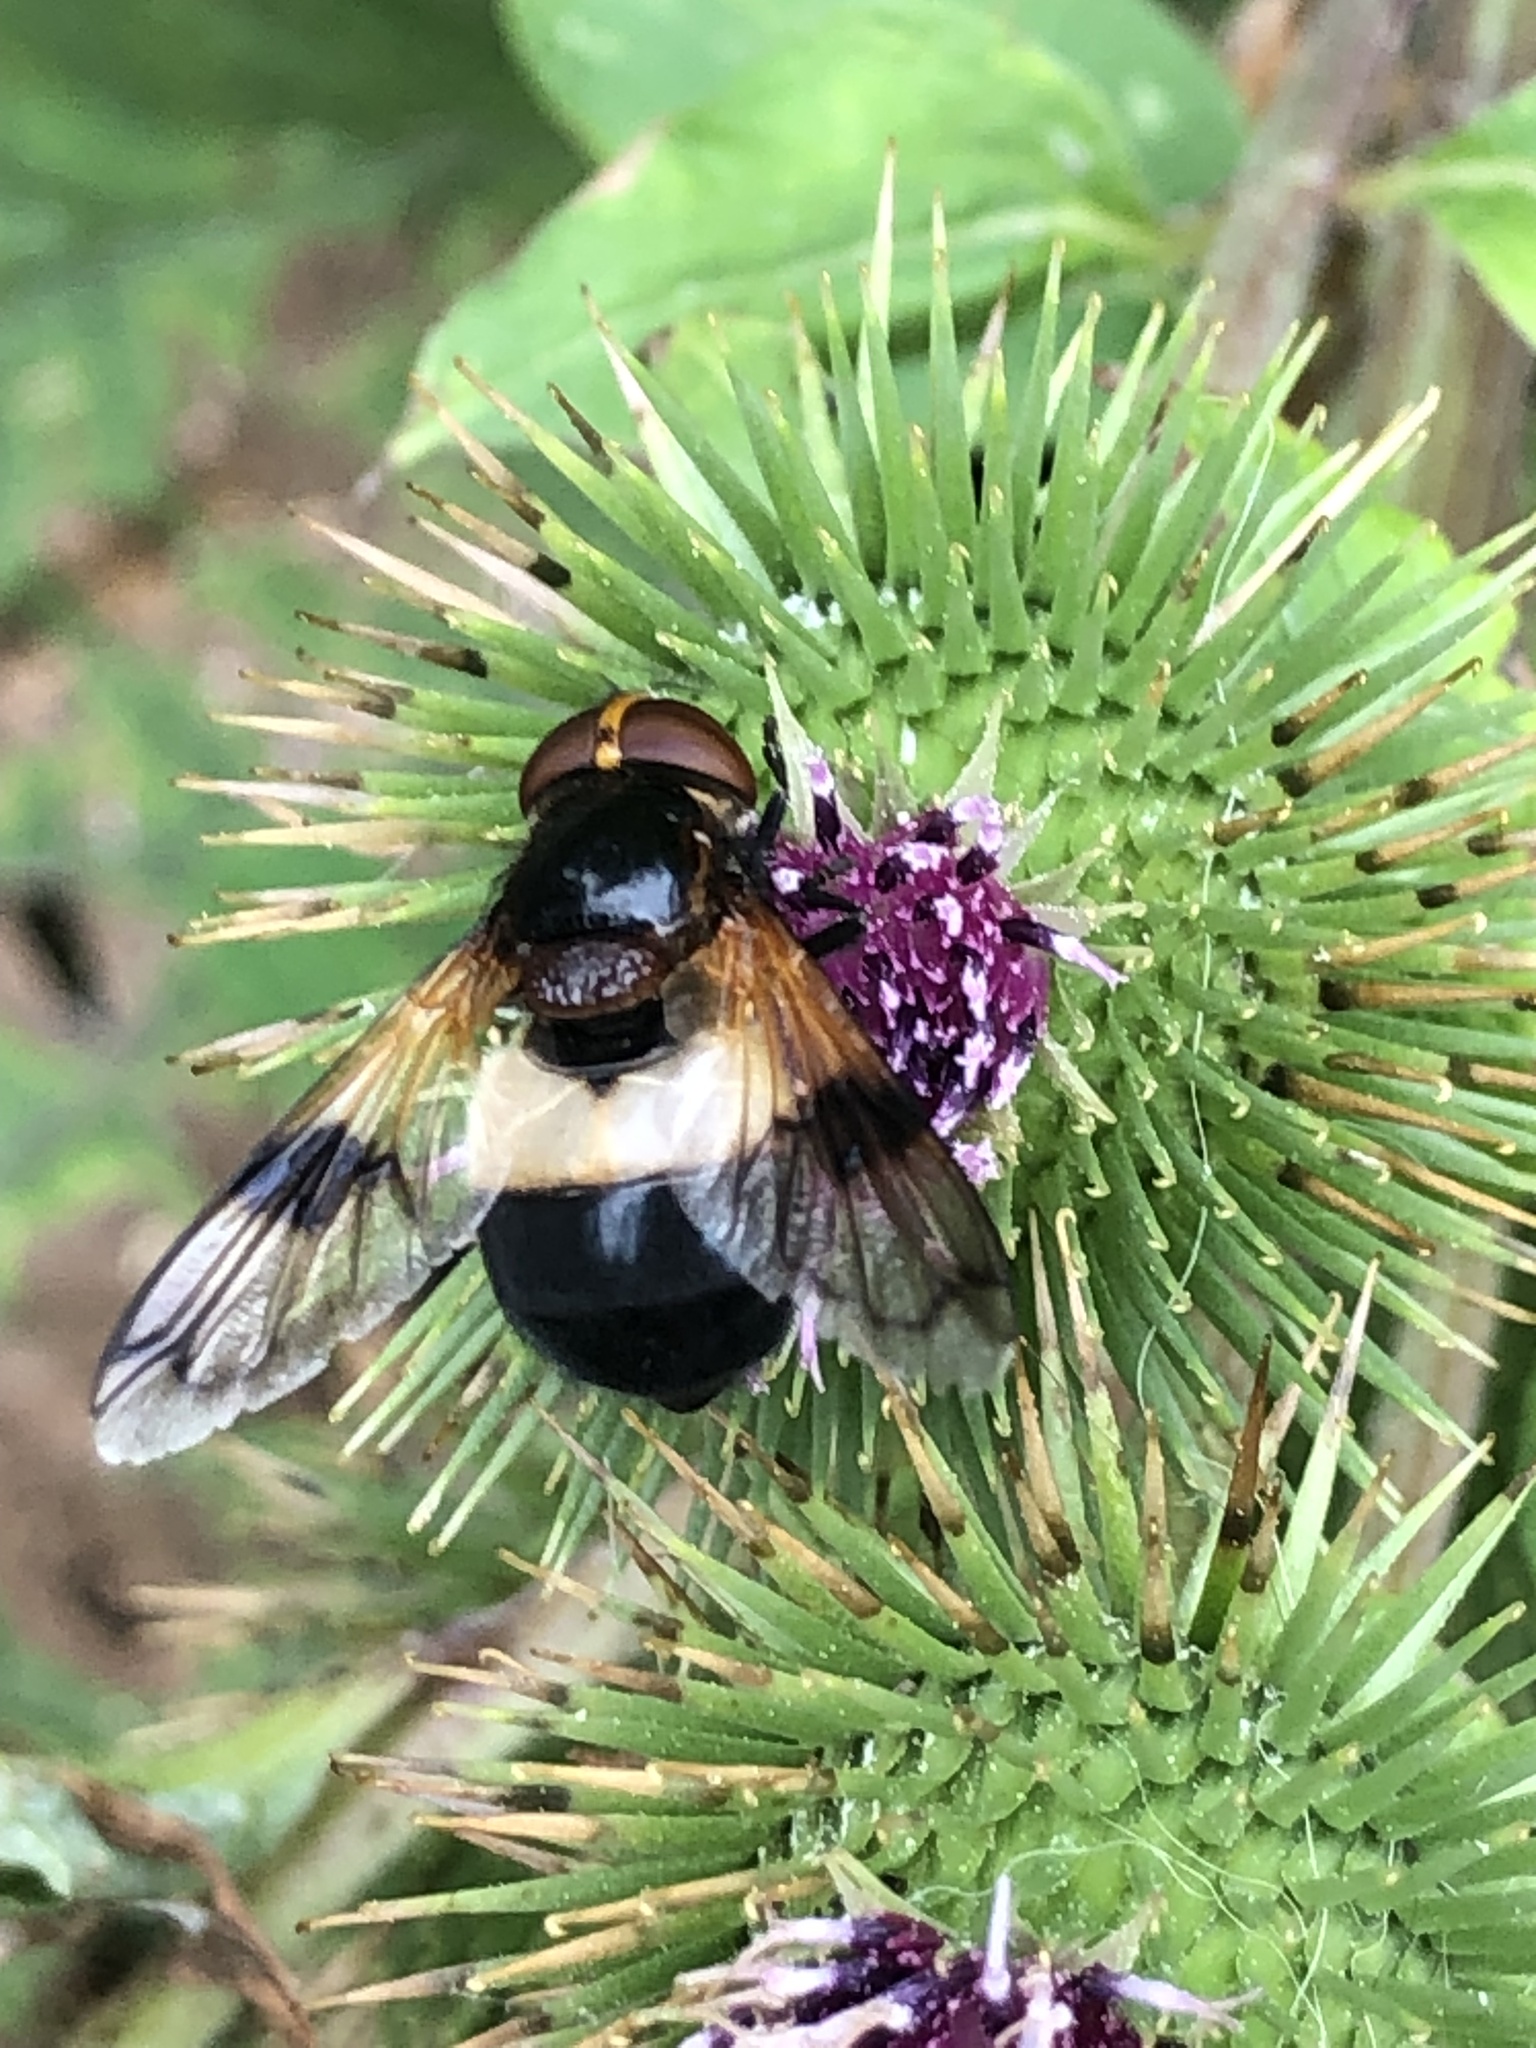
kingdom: Animalia
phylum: Arthropoda
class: Insecta
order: Diptera
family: Syrphidae
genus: Volucella
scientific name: Volucella pellucens
